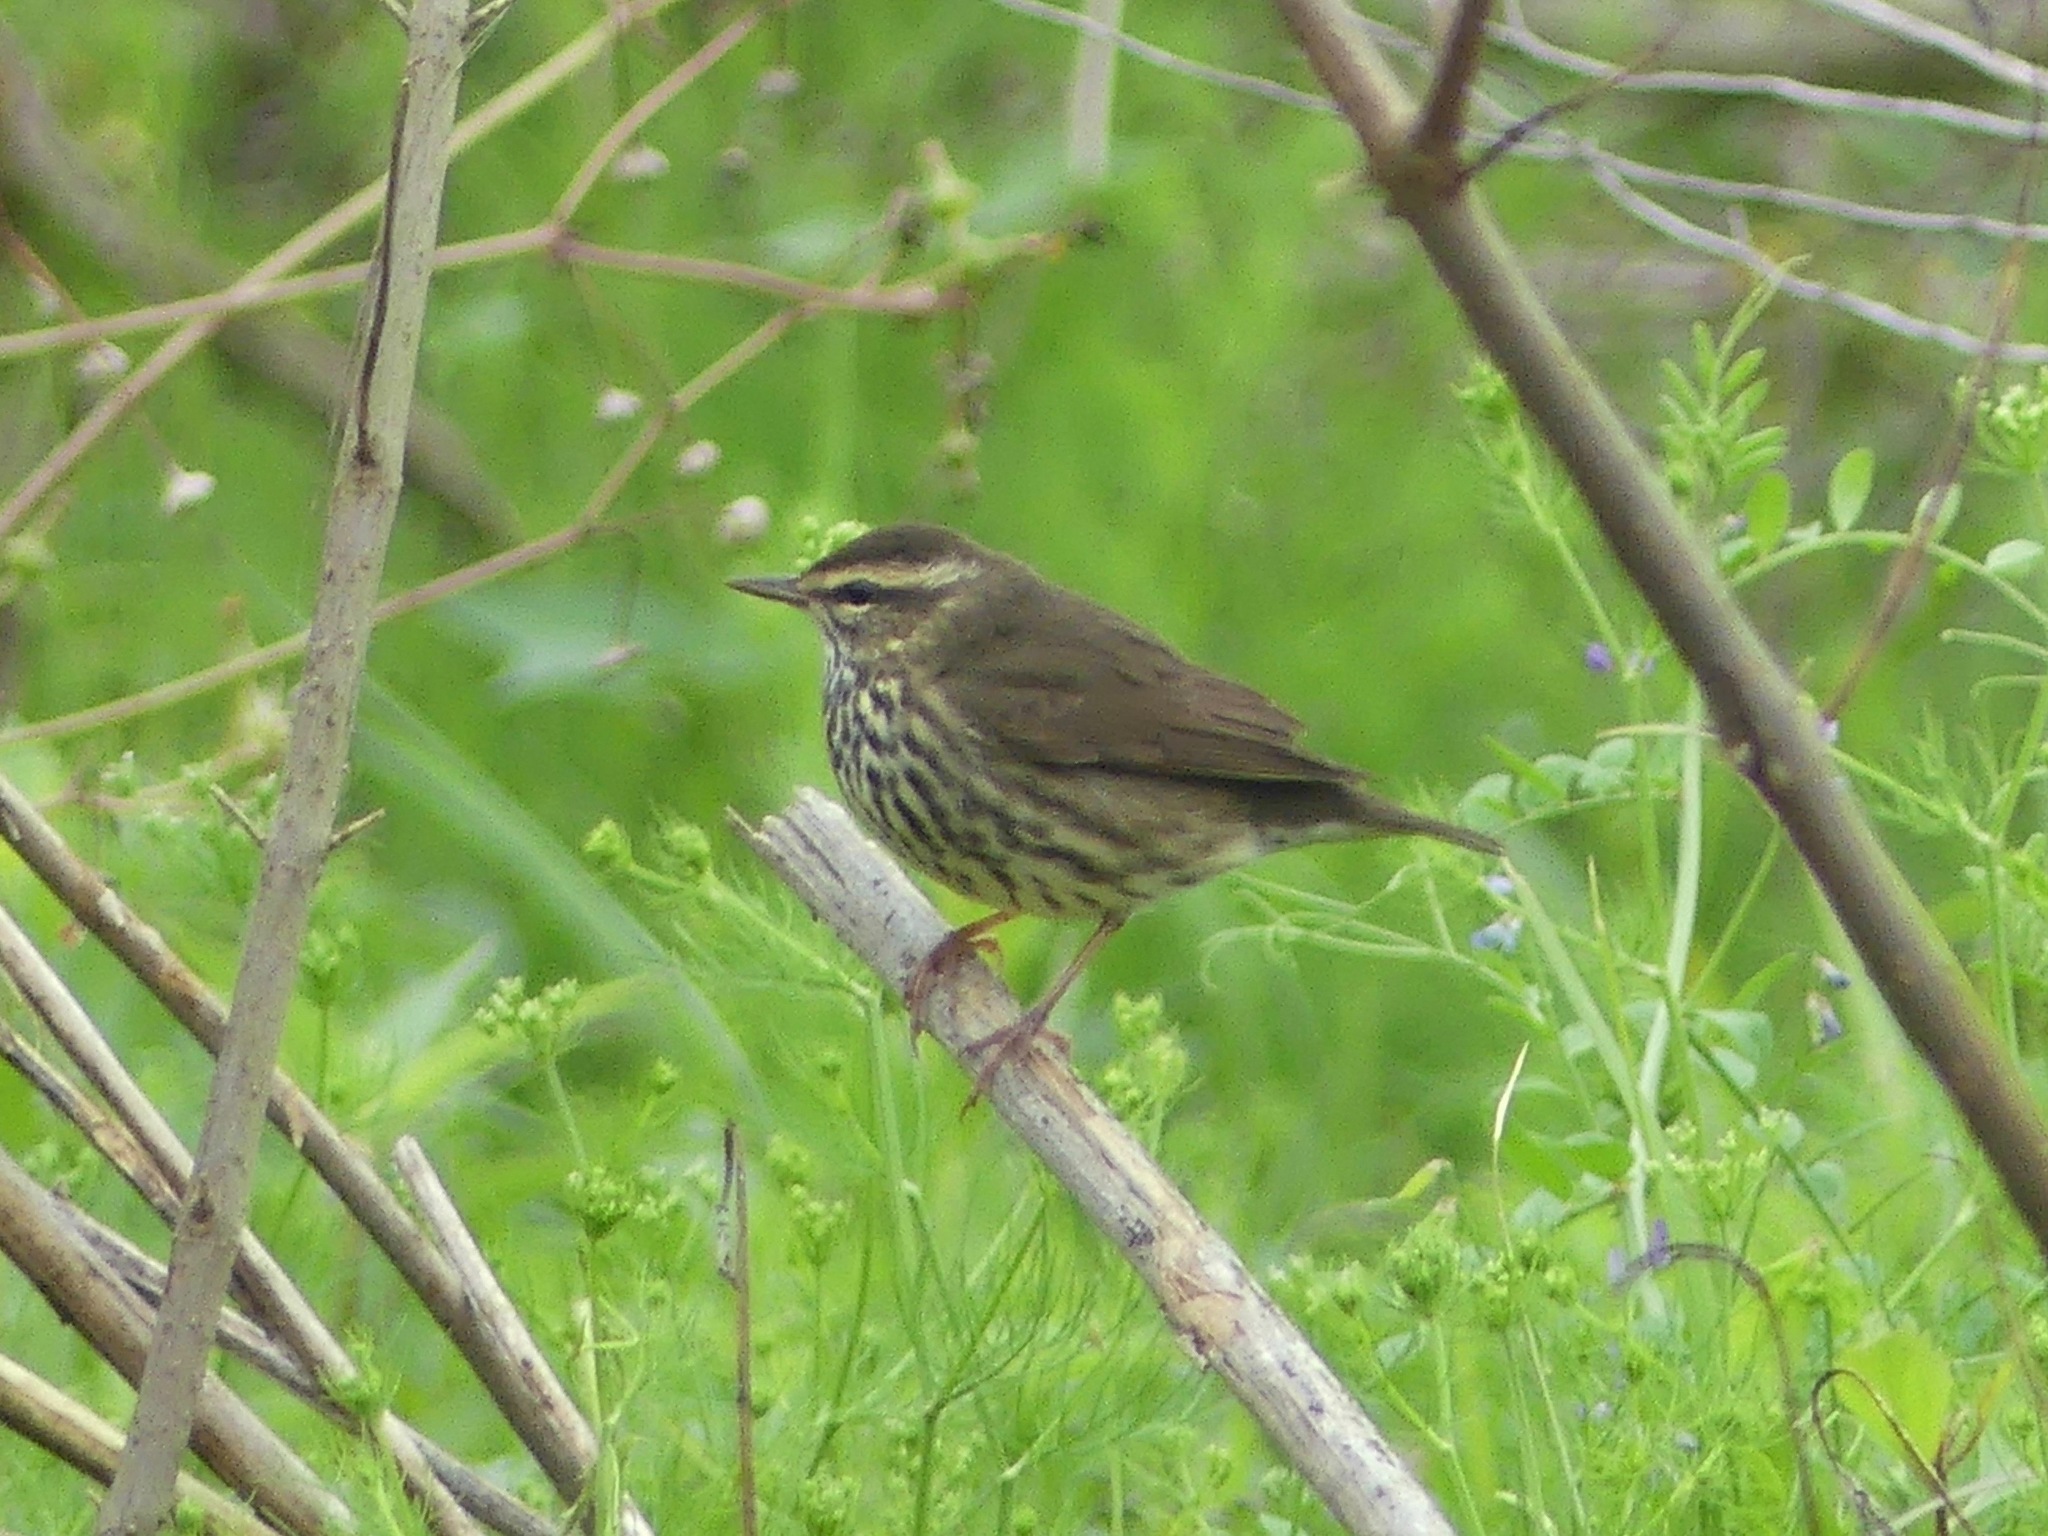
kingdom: Animalia
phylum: Chordata
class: Aves
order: Passeriformes
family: Parulidae
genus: Parkesia
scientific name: Parkesia noveboracensis
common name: Northern waterthrush
